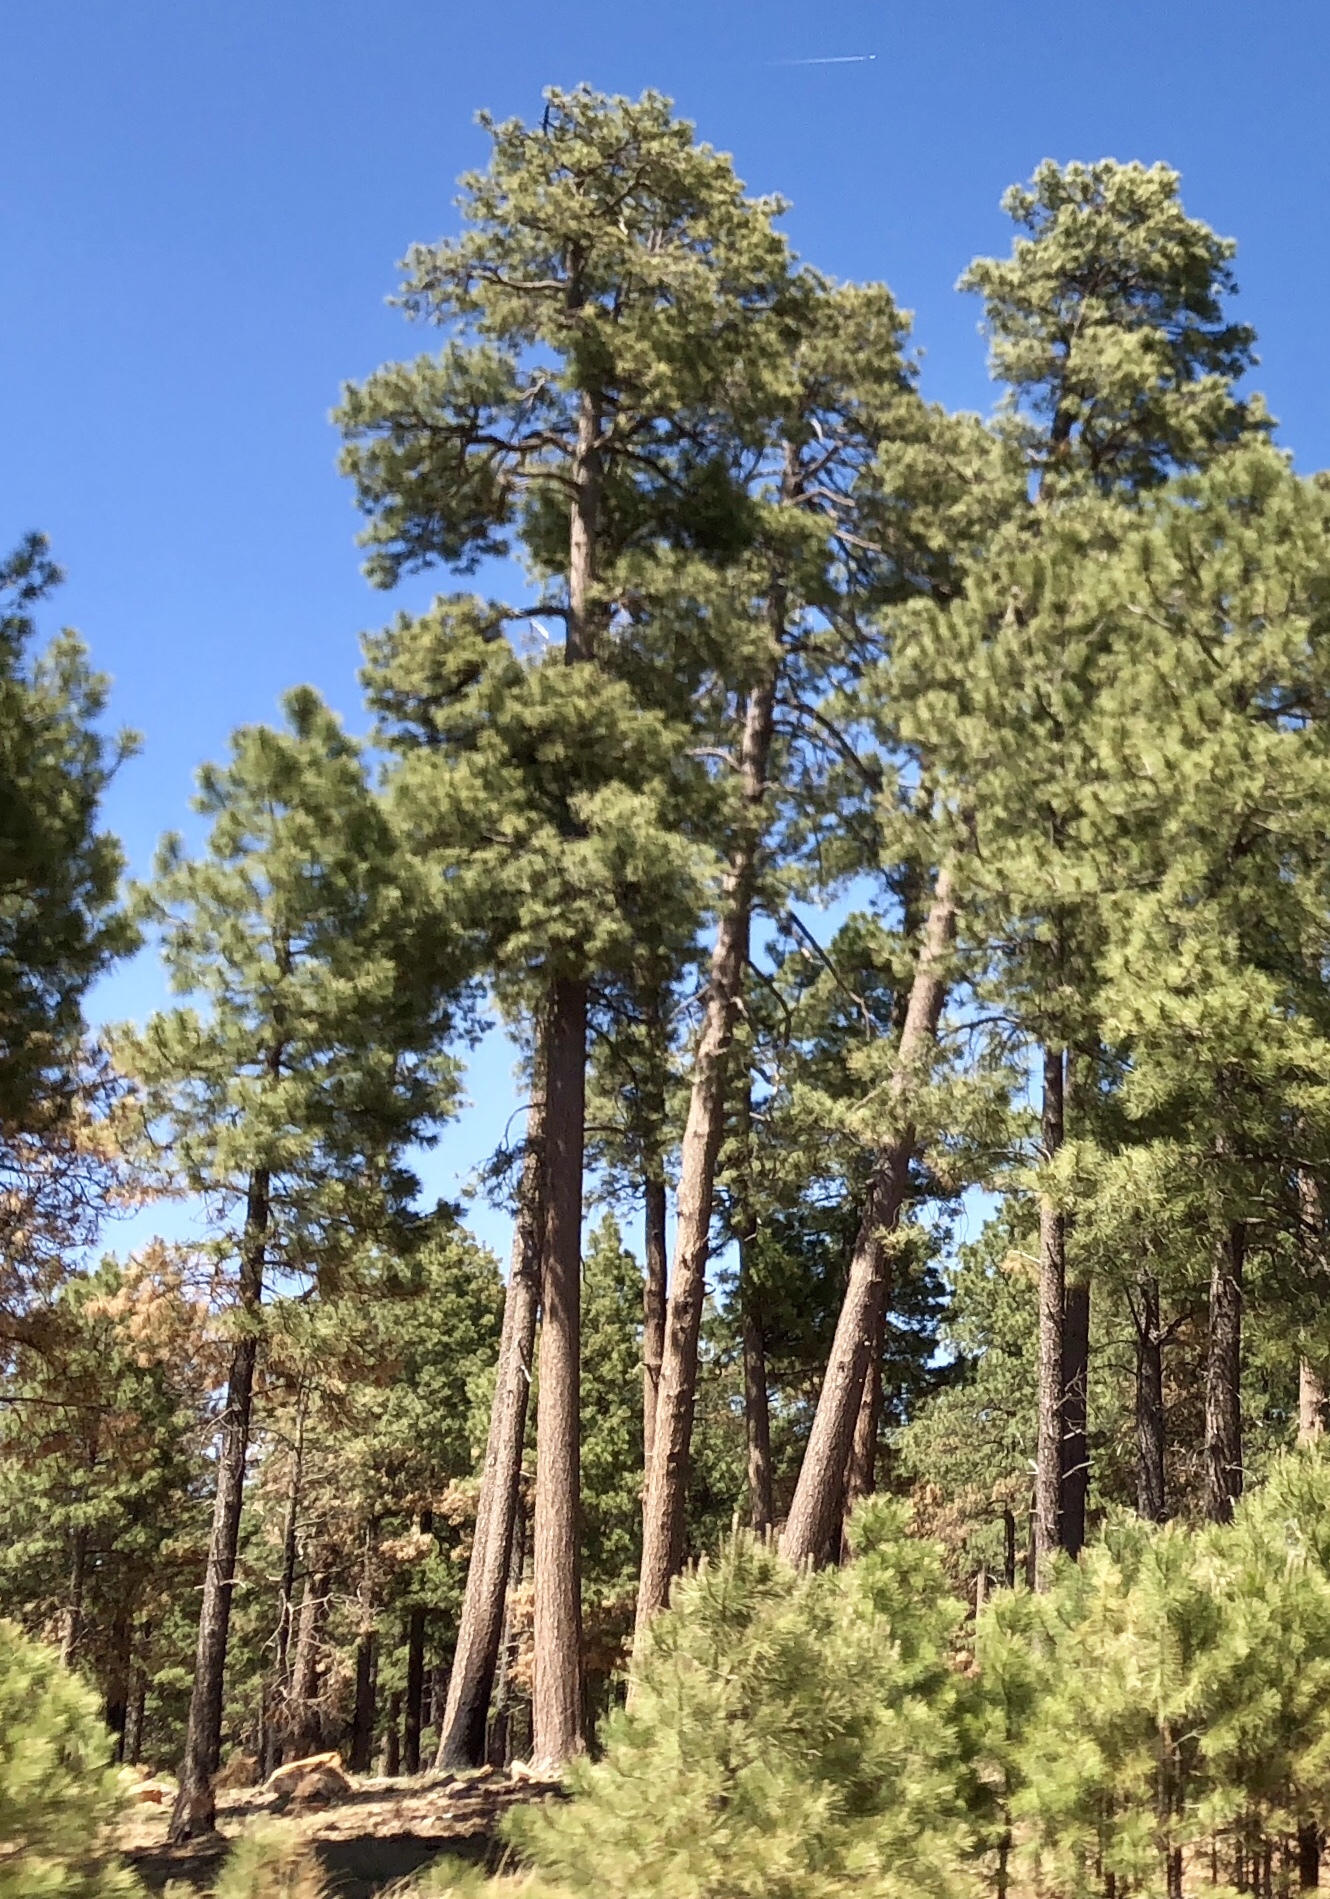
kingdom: Plantae
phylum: Tracheophyta
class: Pinopsida
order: Pinales
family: Pinaceae
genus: Pinus
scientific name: Pinus ponderosa
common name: Western yellow-pine
